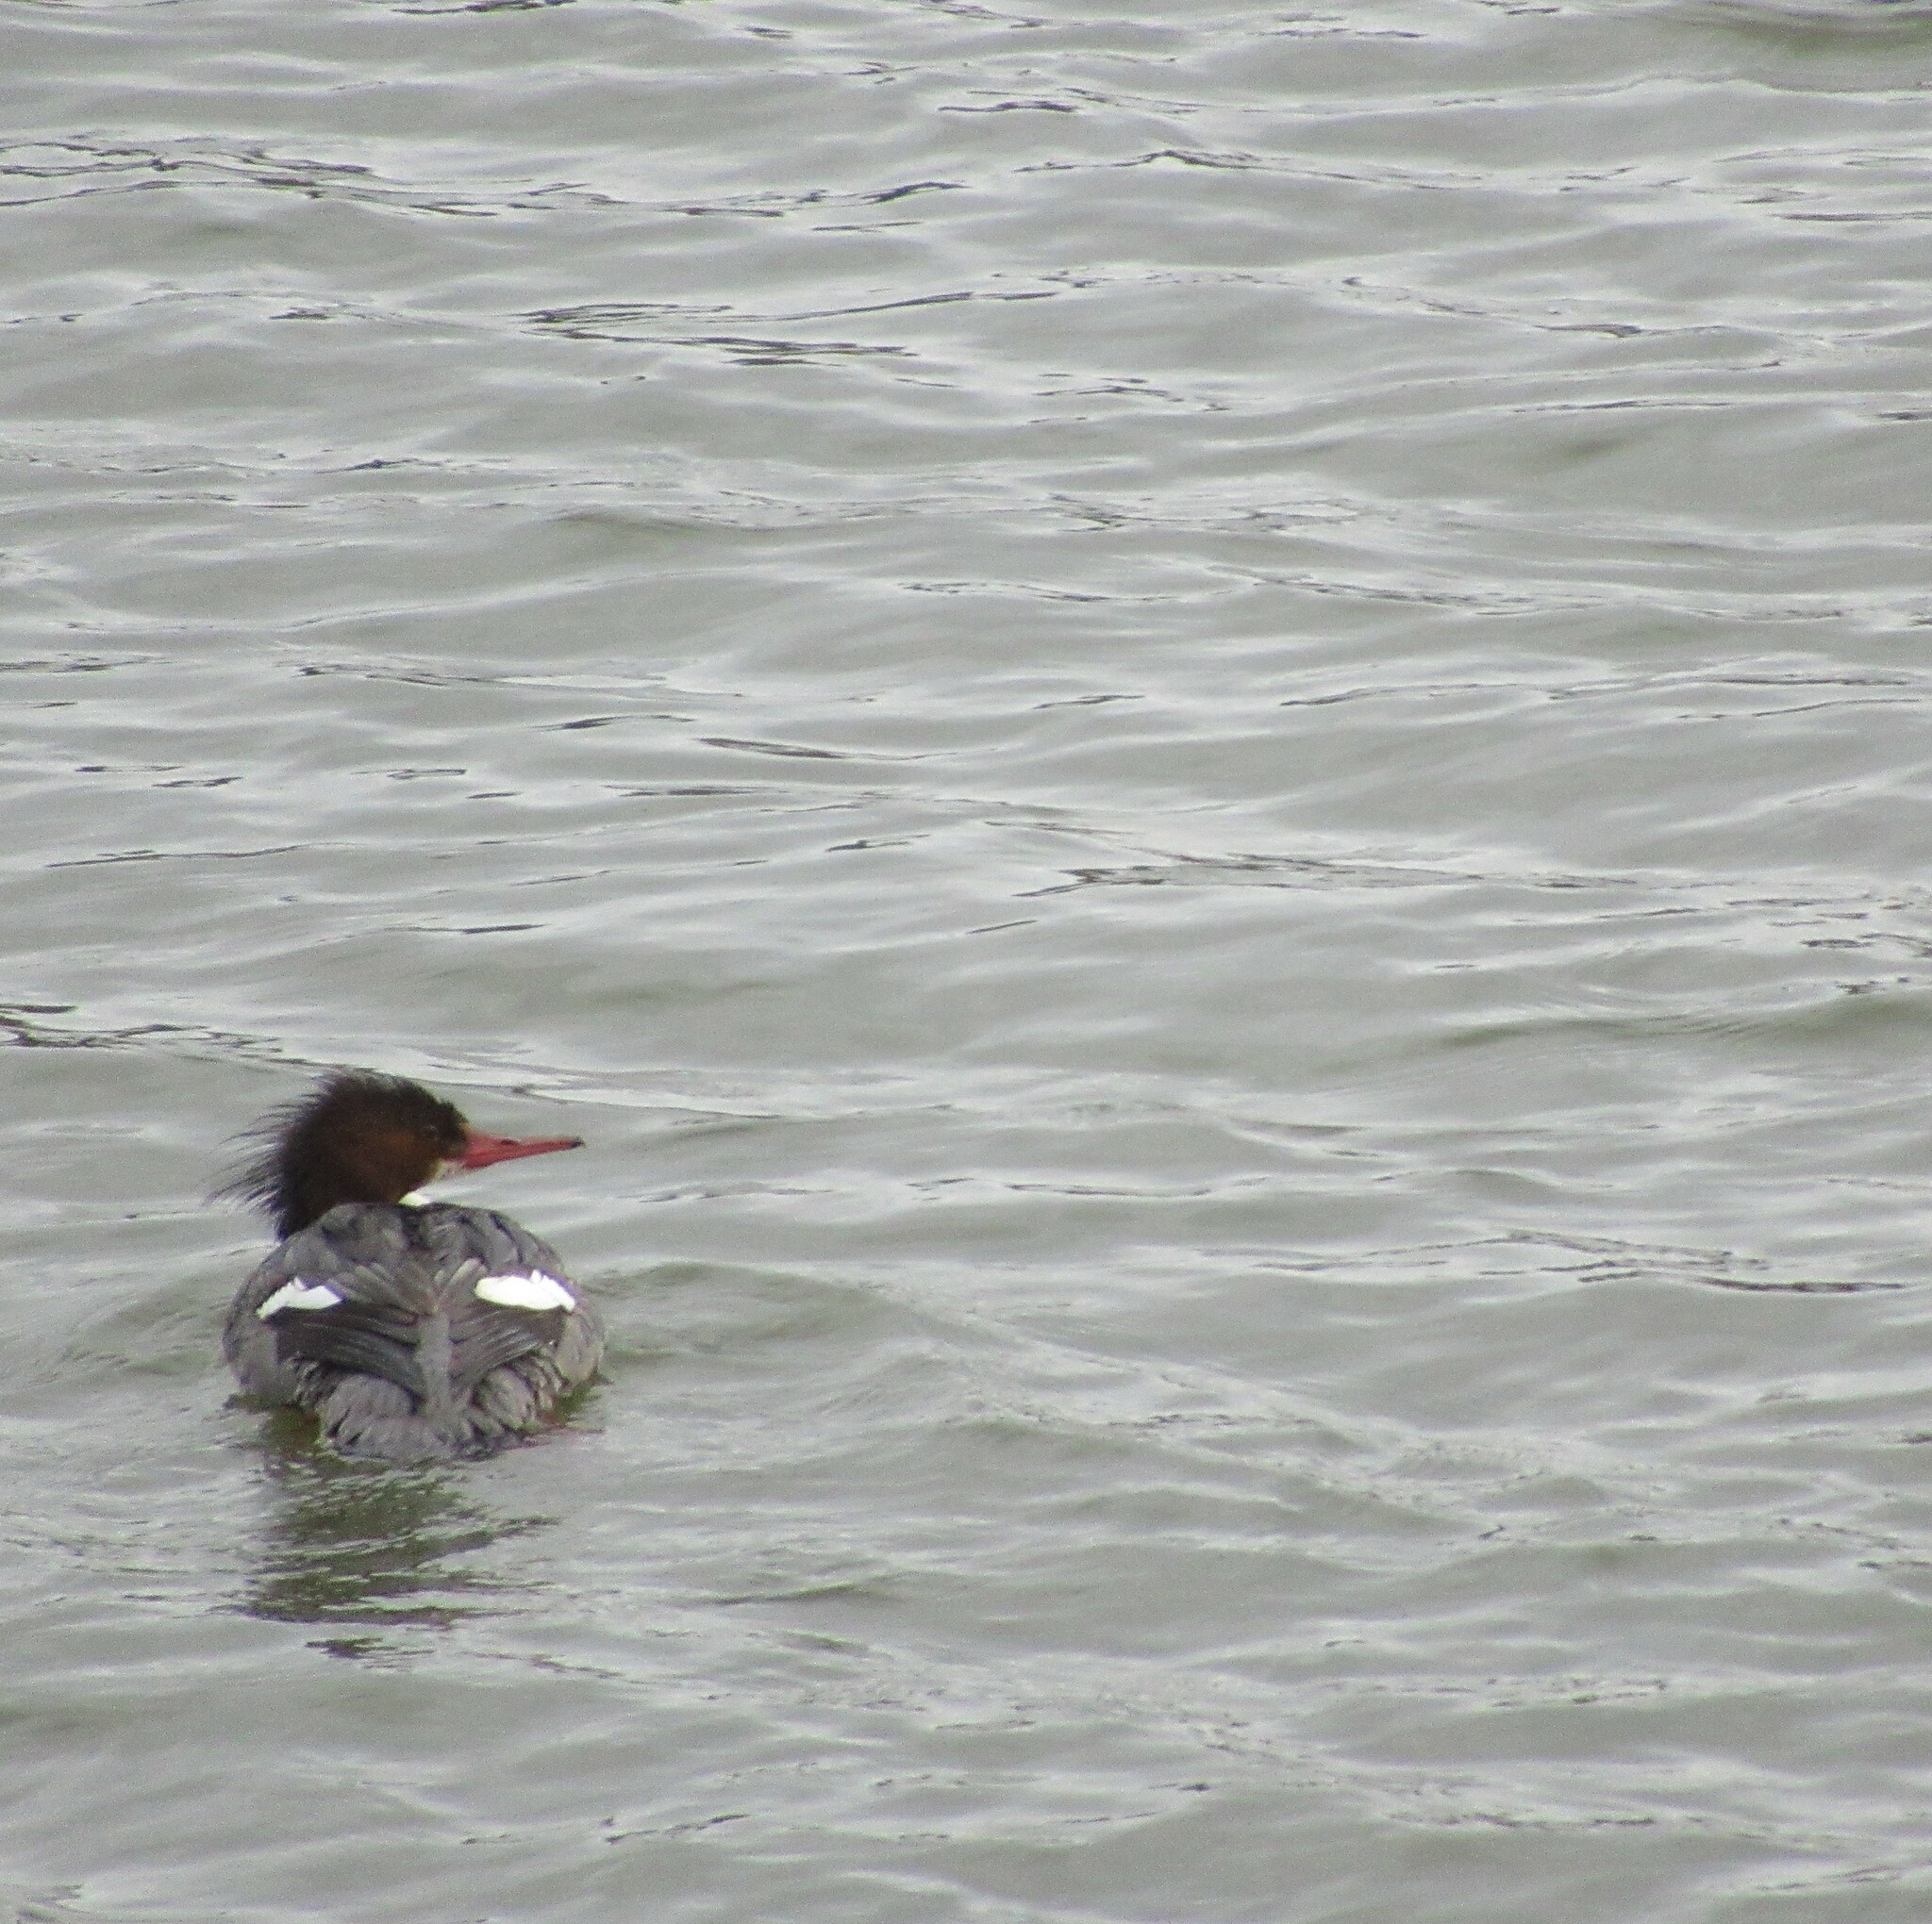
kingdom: Animalia
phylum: Chordata
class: Aves
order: Anseriformes
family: Anatidae
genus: Mergus
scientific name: Mergus merganser
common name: Common merganser
